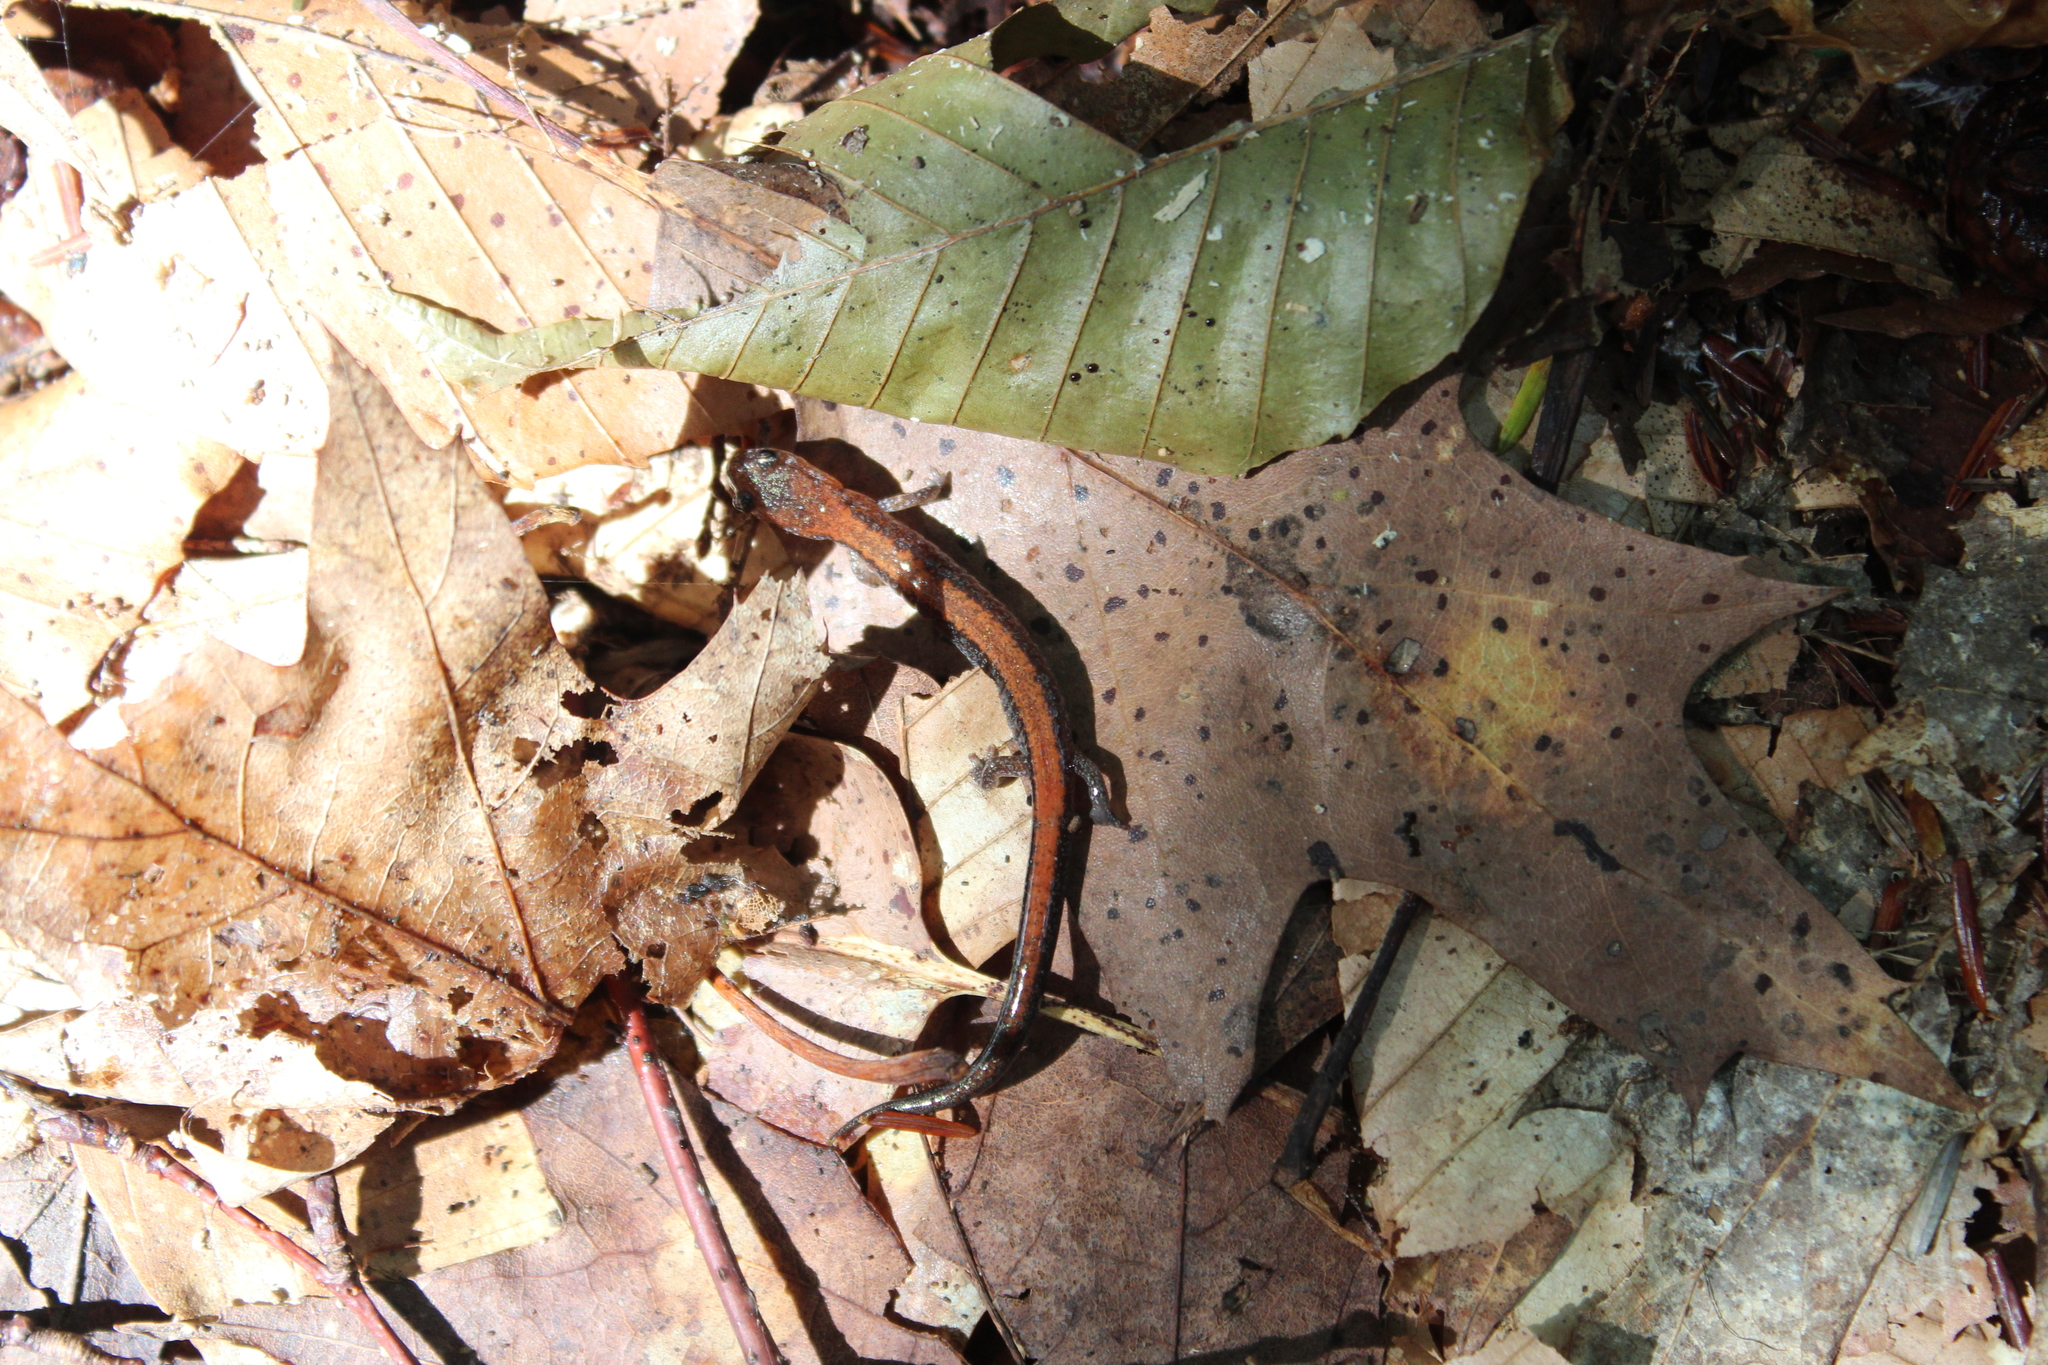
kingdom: Animalia
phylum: Chordata
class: Amphibia
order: Caudata
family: Plethodontidae
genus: Plethodon
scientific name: Plethodon cinereus
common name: Redback salamander
